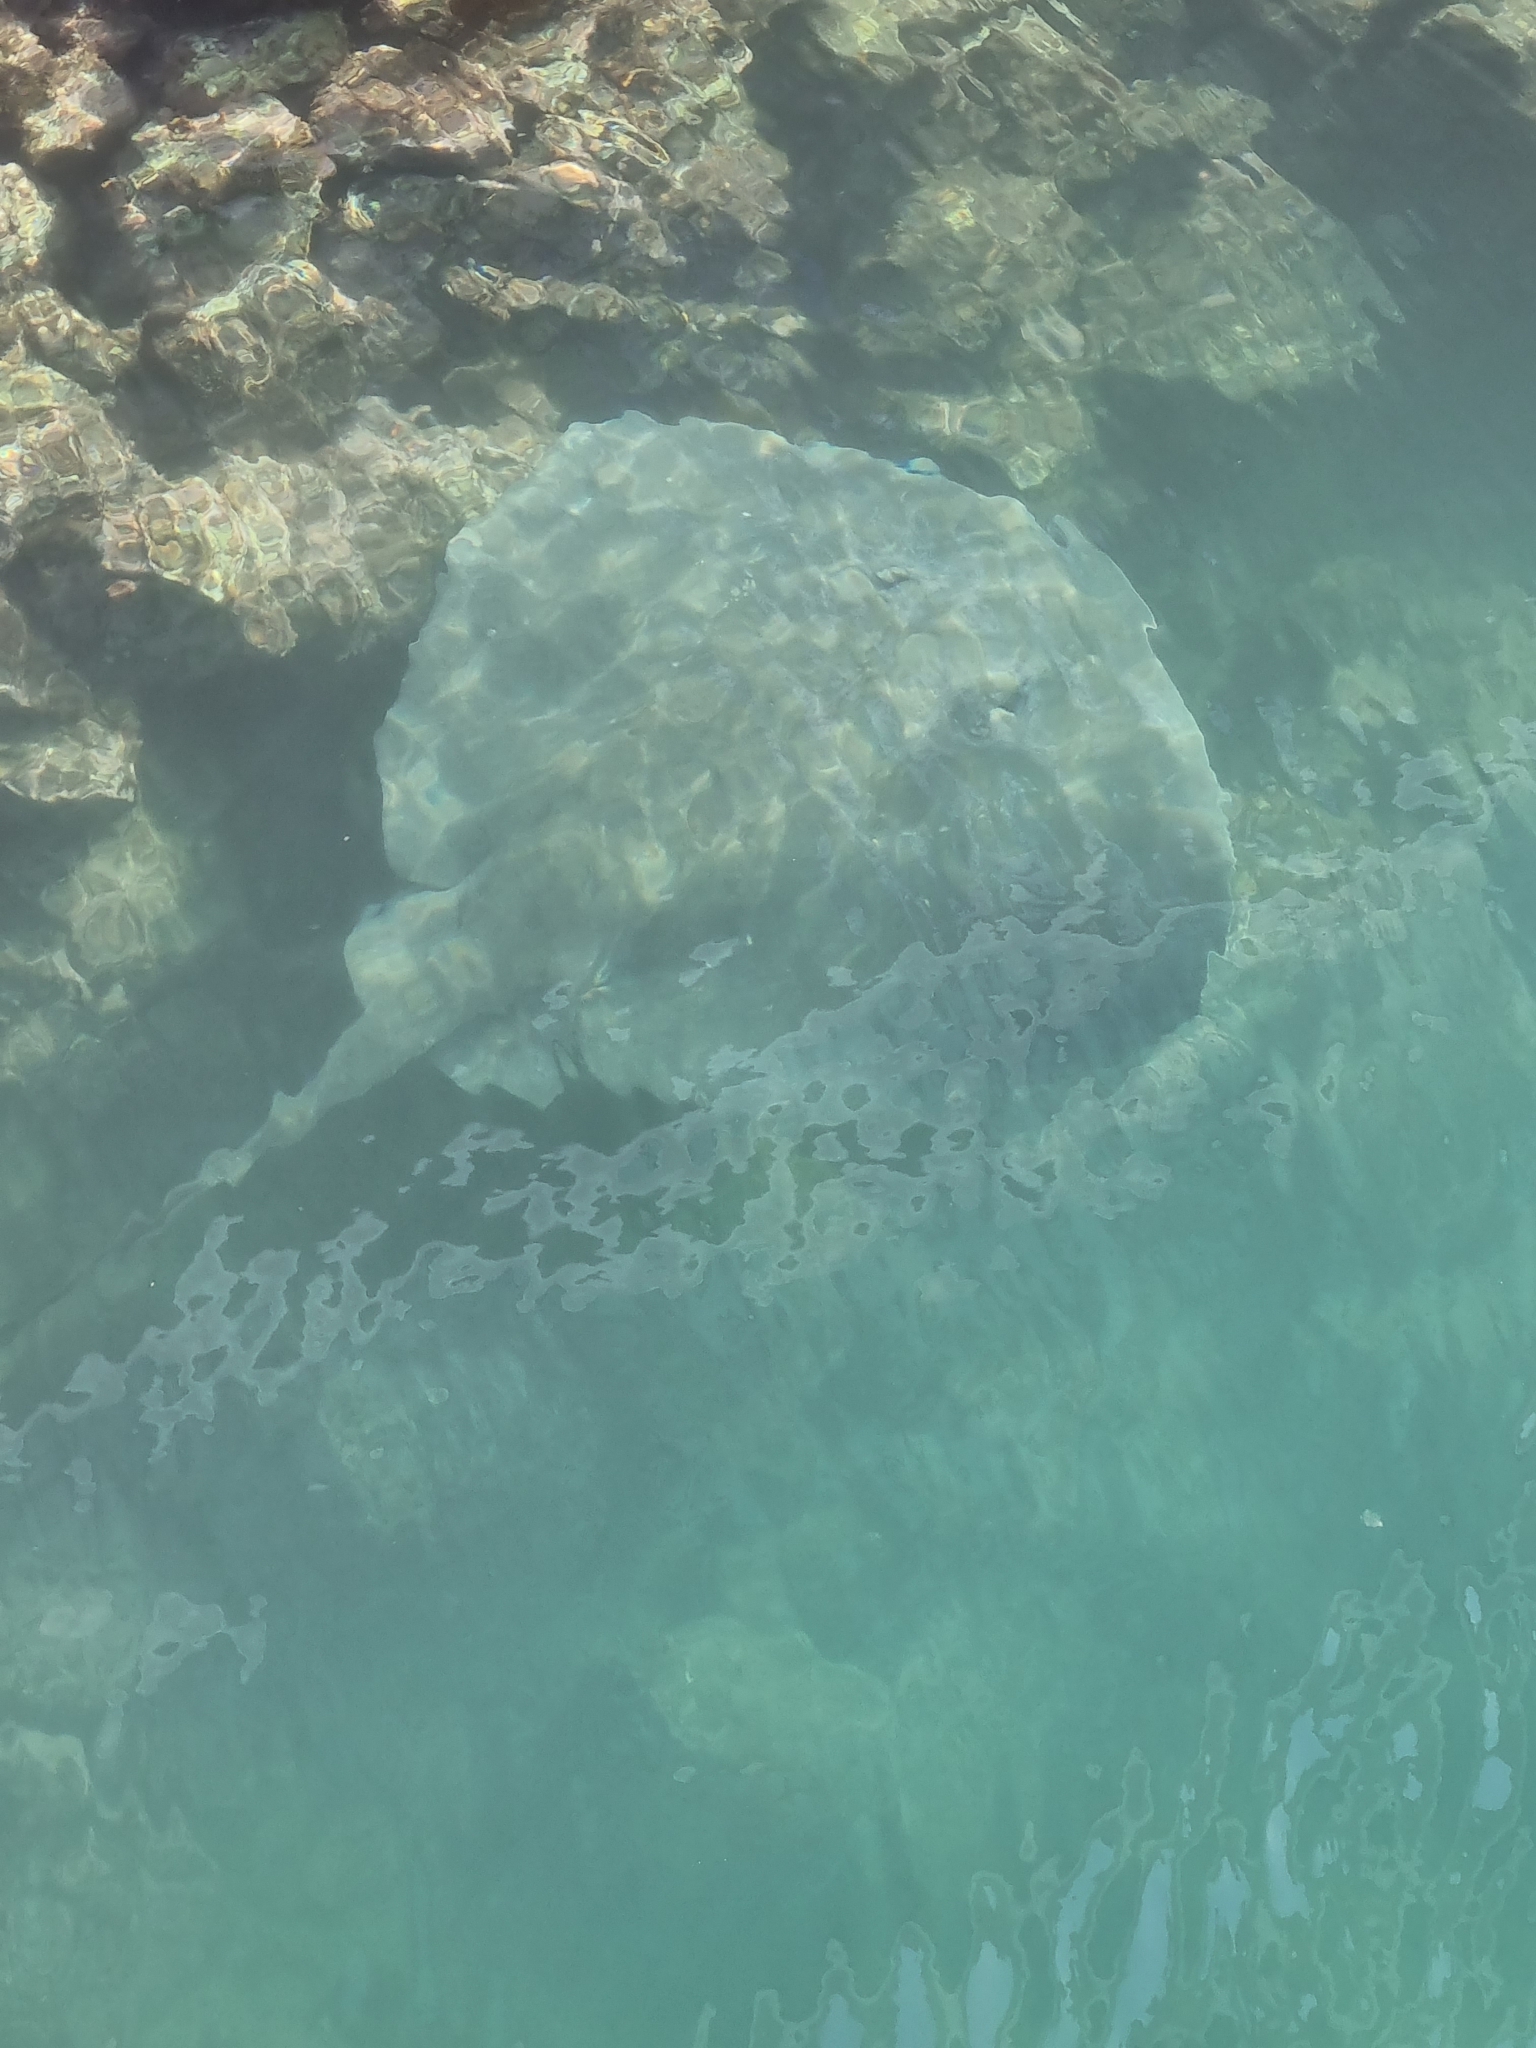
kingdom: Animalia
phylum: Chordata
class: Elasmobranchii
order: Myliobatiformes
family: Dasyatidae
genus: Bathytoshia
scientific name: Bathytoshia brevicaudata
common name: Short-tail stingray
